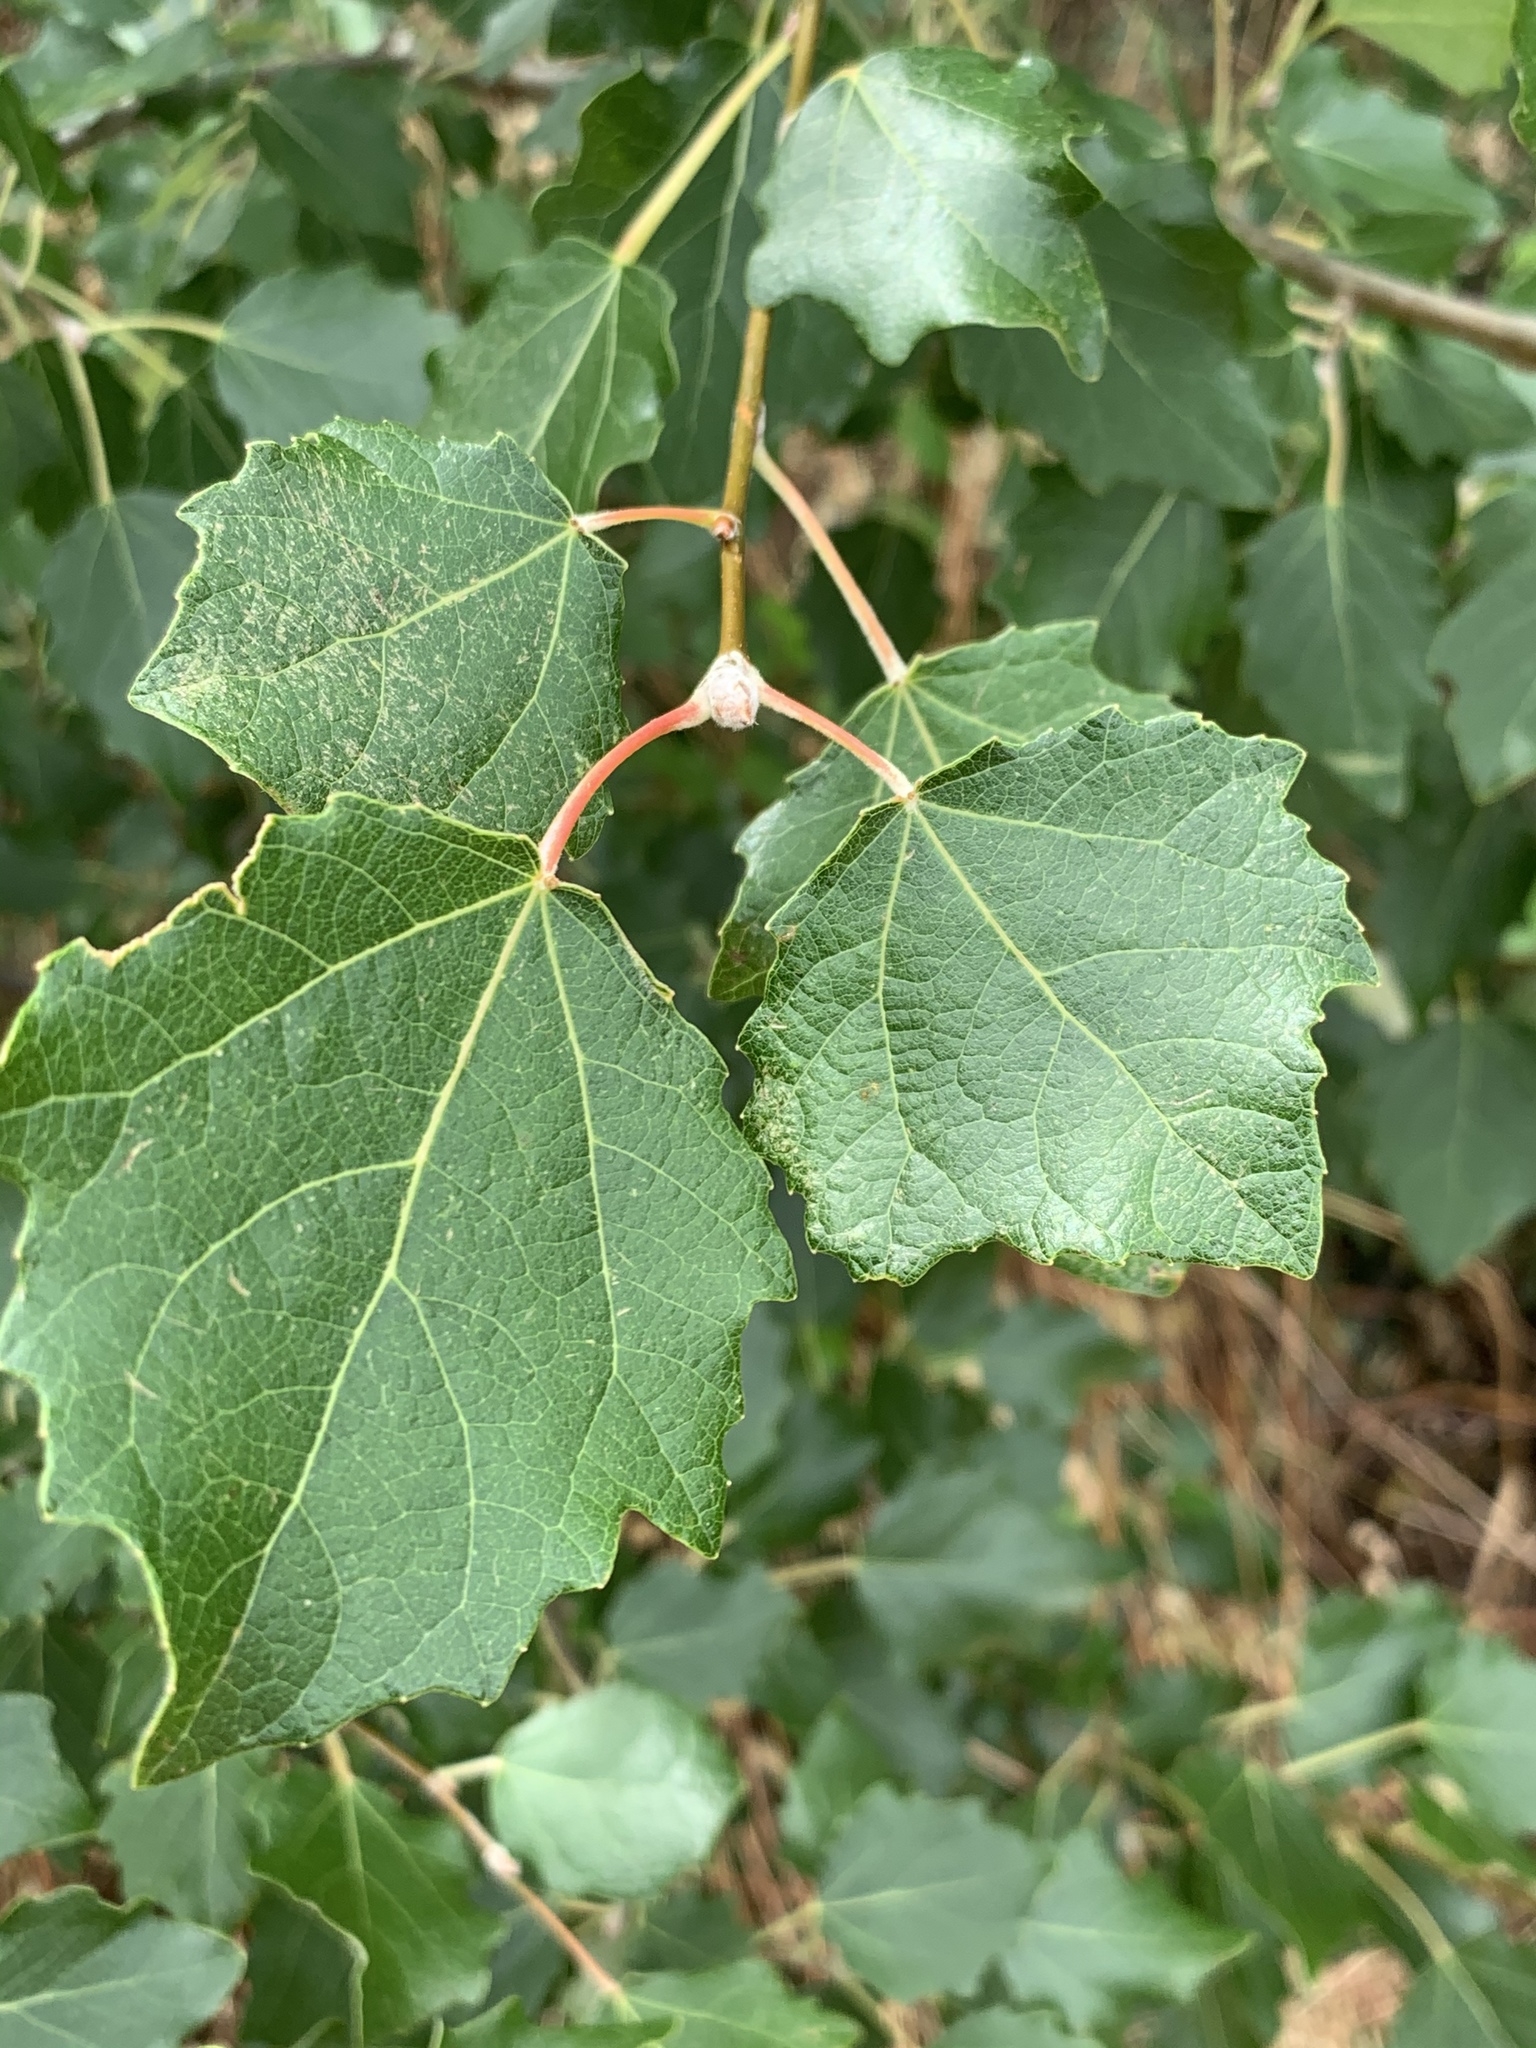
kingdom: Plantae
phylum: Tracheophyta
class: Magnoliopsida
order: Malpighiales
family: Salicaceae
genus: Populus
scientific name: Populus canescens
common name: Gray poplar
